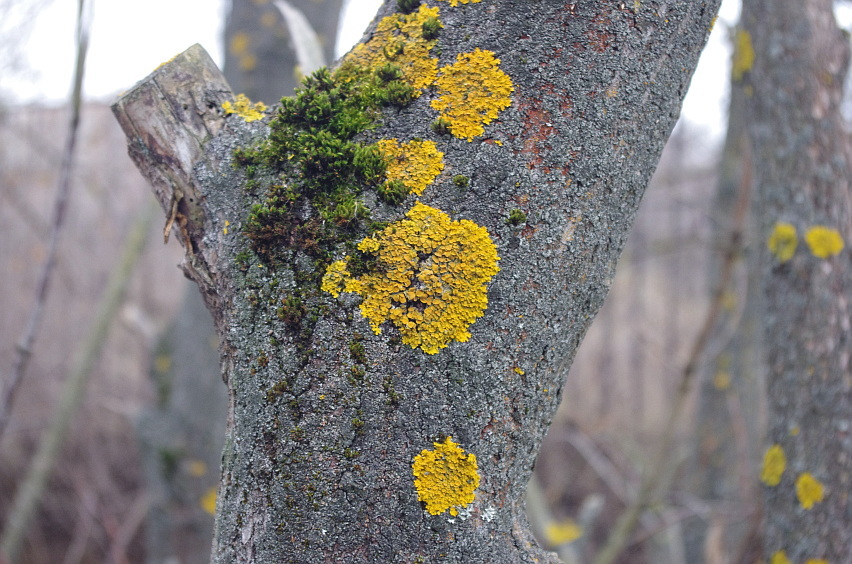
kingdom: Fungi
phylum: Ascomycota
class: Lecanoromycetes
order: Teloschistales
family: Teloschistaceae
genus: Xanthoria
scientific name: Xanthoria parietina
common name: Common orange lichen
